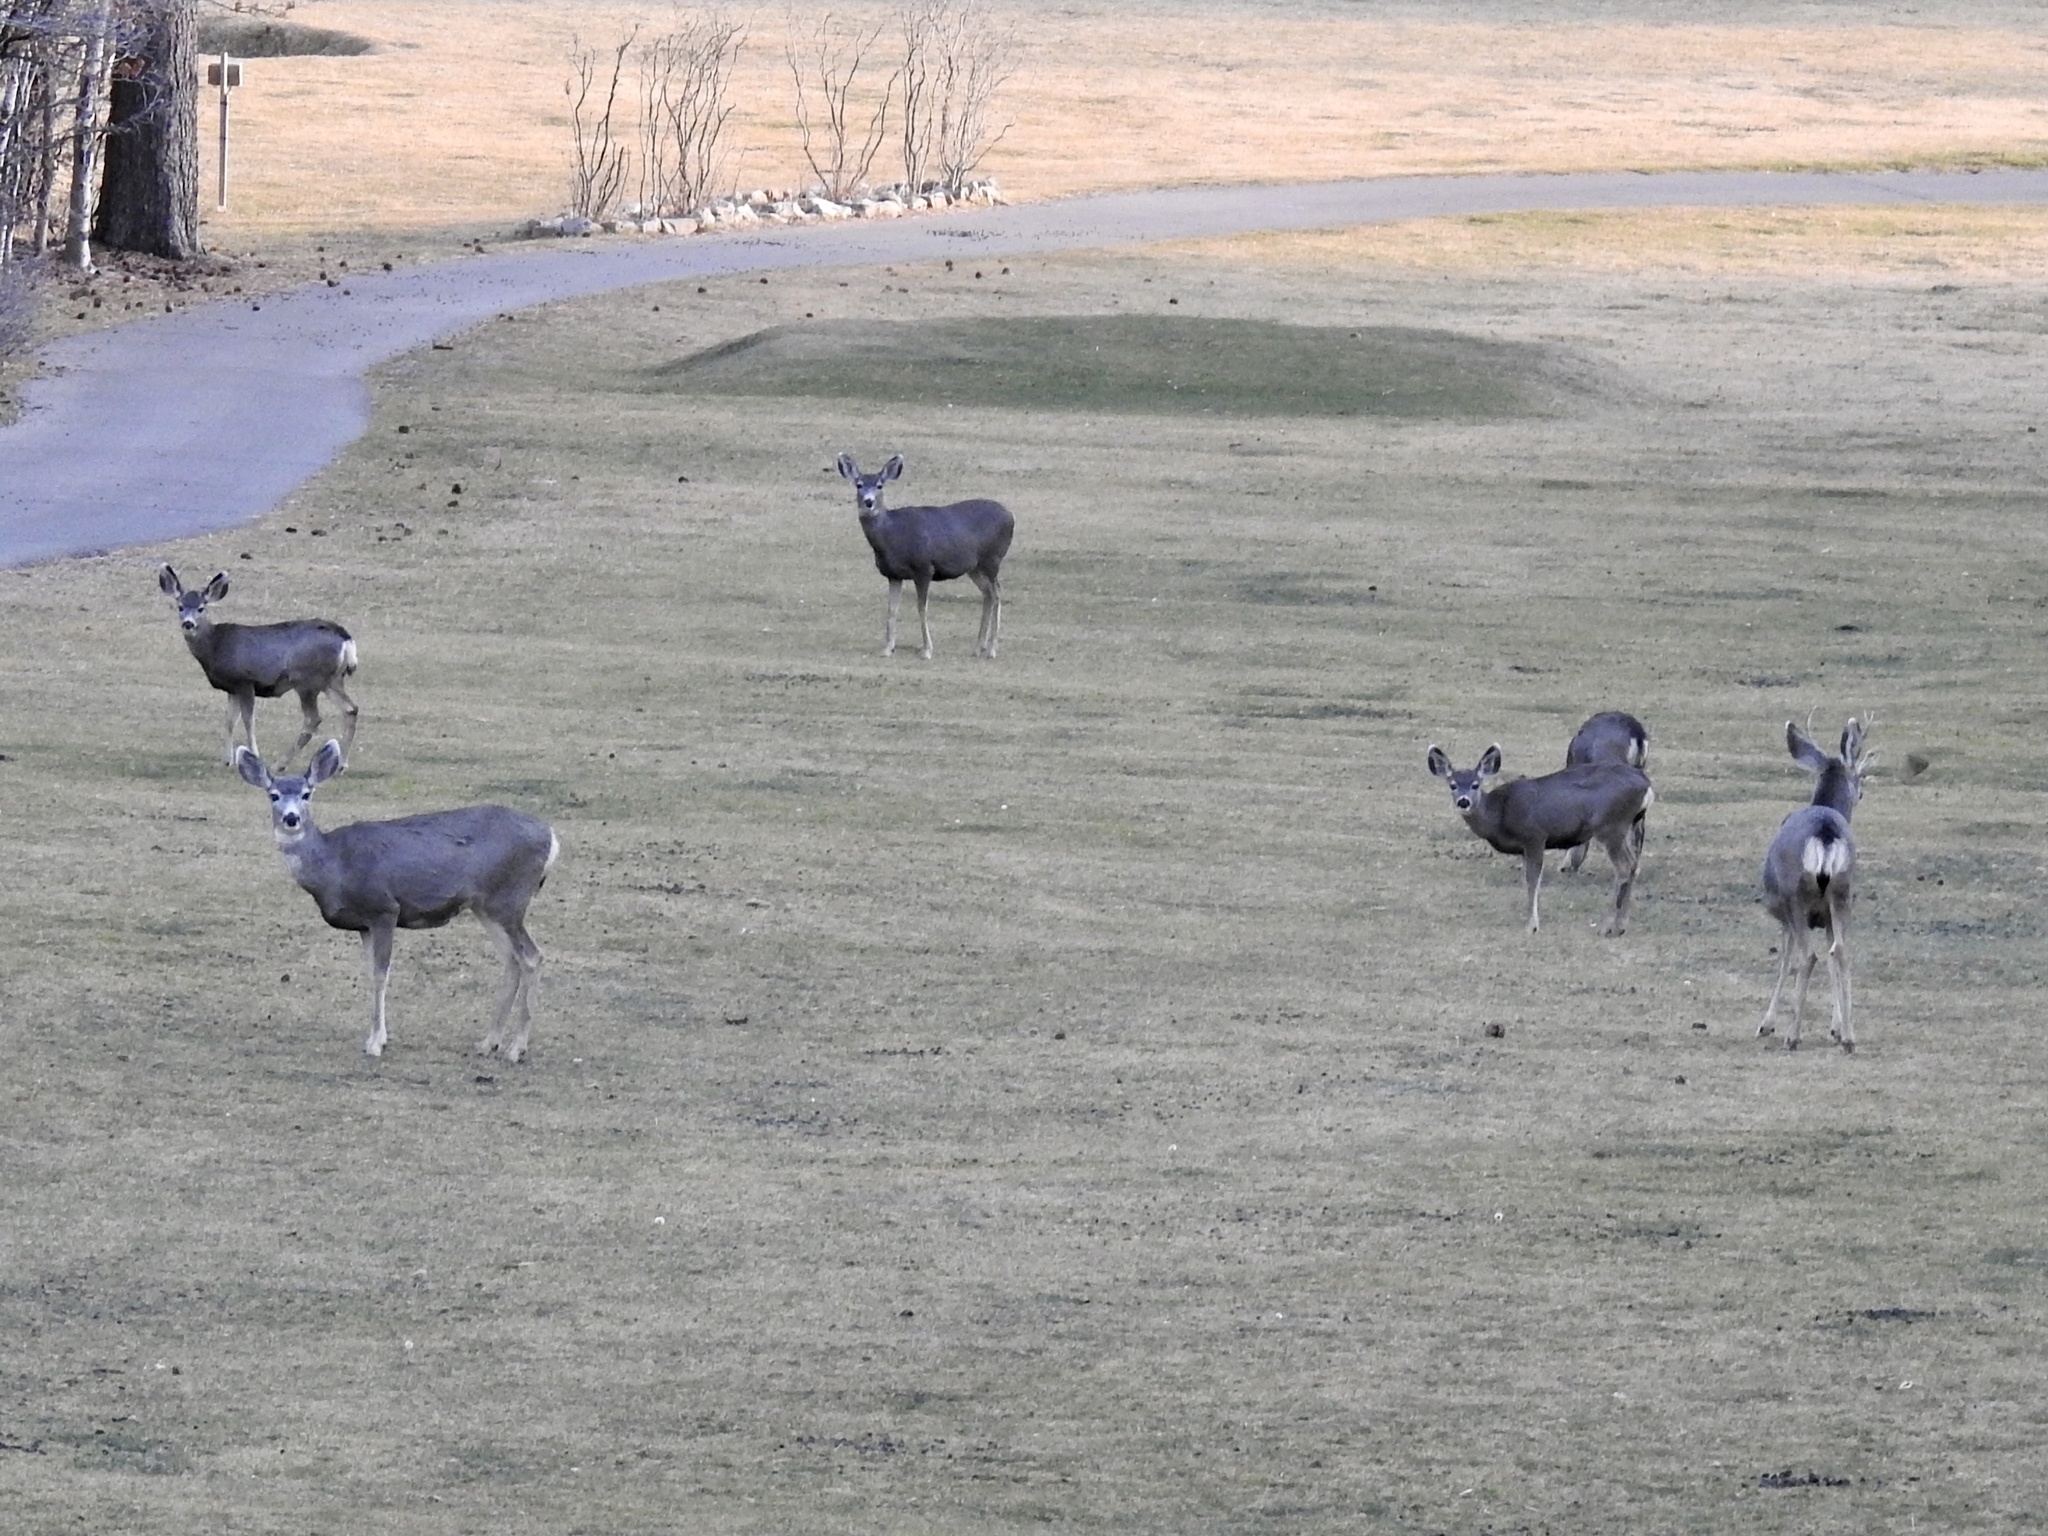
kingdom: Animalia
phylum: Chordata
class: Mammalia
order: Artiodactyla
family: Cervidae
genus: Odocoileus
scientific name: Odocoileus hemionus
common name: Mule deer
